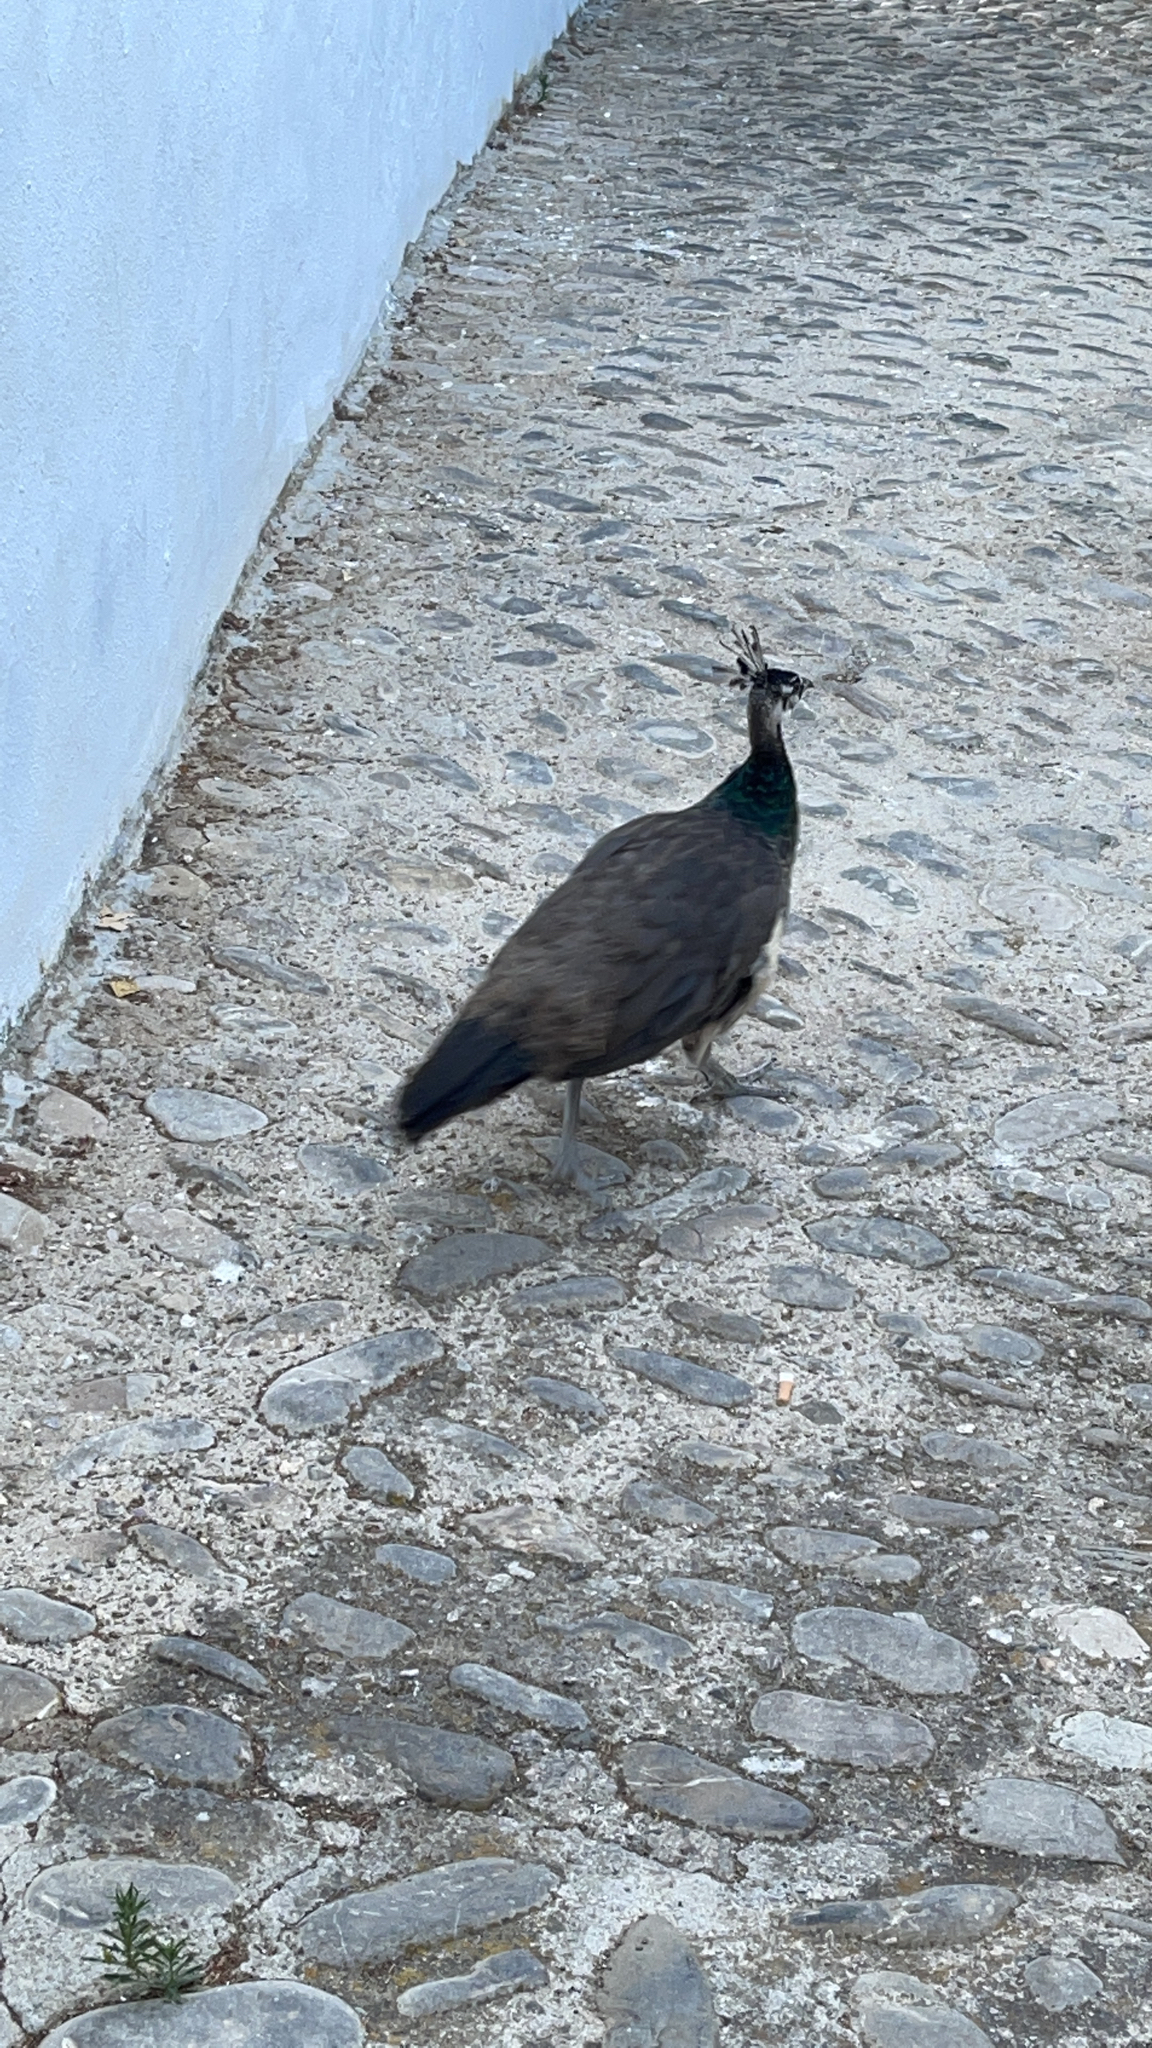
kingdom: Animalia
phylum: Chordata
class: Aves
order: Galliformes
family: Phasianidae
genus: Pavo
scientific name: Pavo cristatus
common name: Indian peafowl
